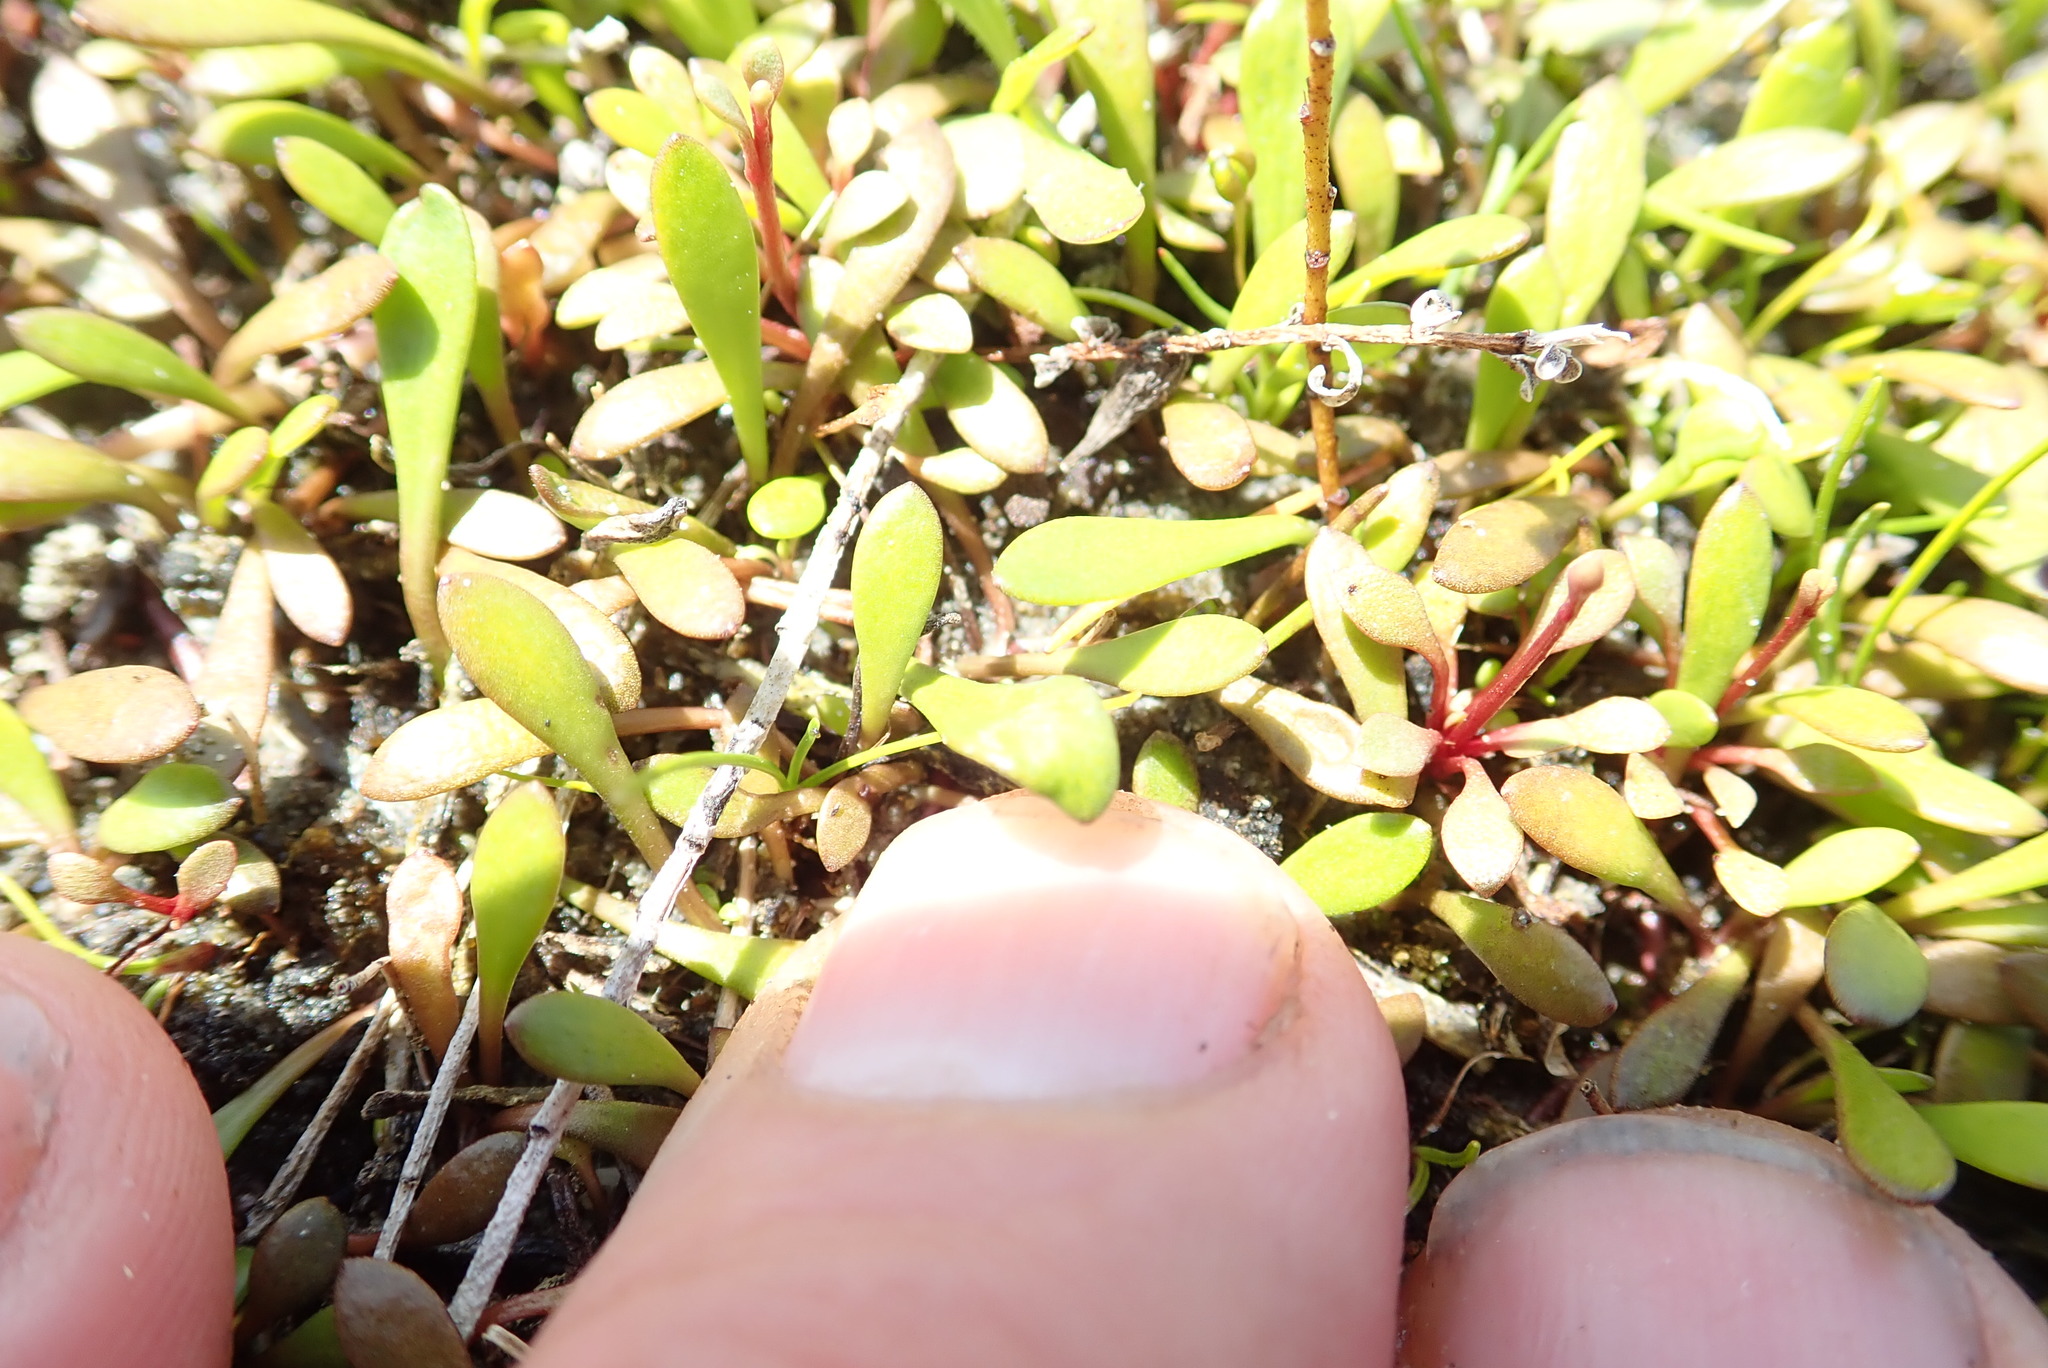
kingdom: Plantae
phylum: Tracheophyta
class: Magnoliopsida
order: Asterales
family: Goodeniaceae
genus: Goodenia
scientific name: Goodenia radicans
